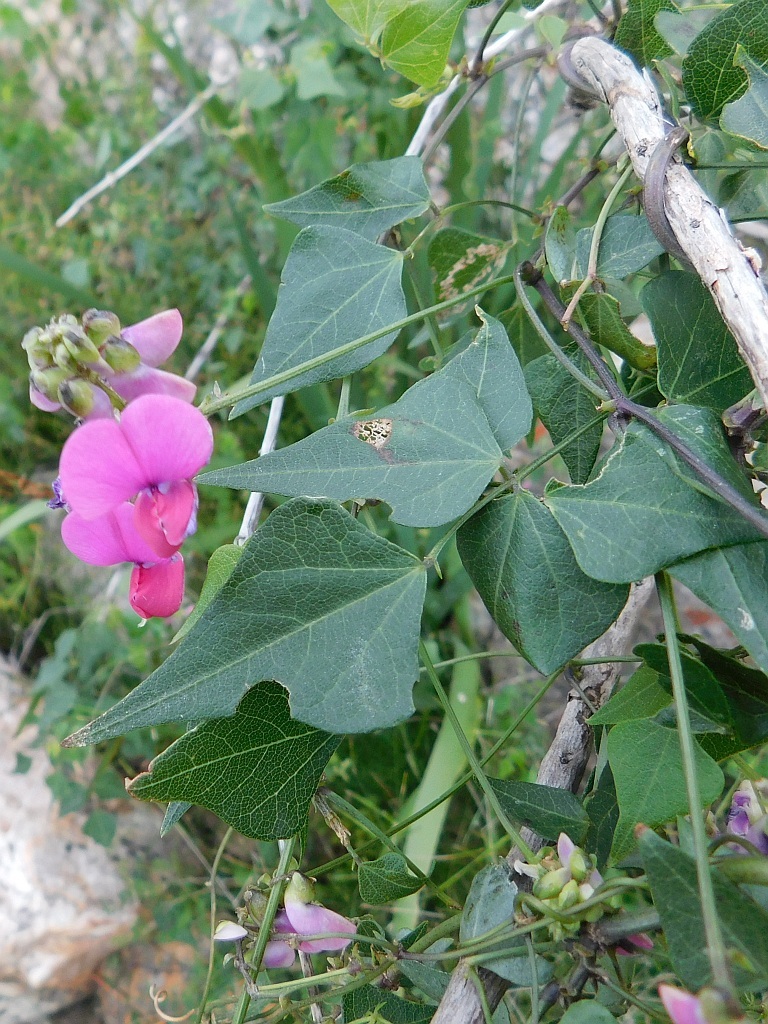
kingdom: Plantae
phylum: Tracheophyta
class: Magnoliopsida
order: Fabales
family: Fabaceae
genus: Dipogon
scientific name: Dipogon lignosus
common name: Okie bean
